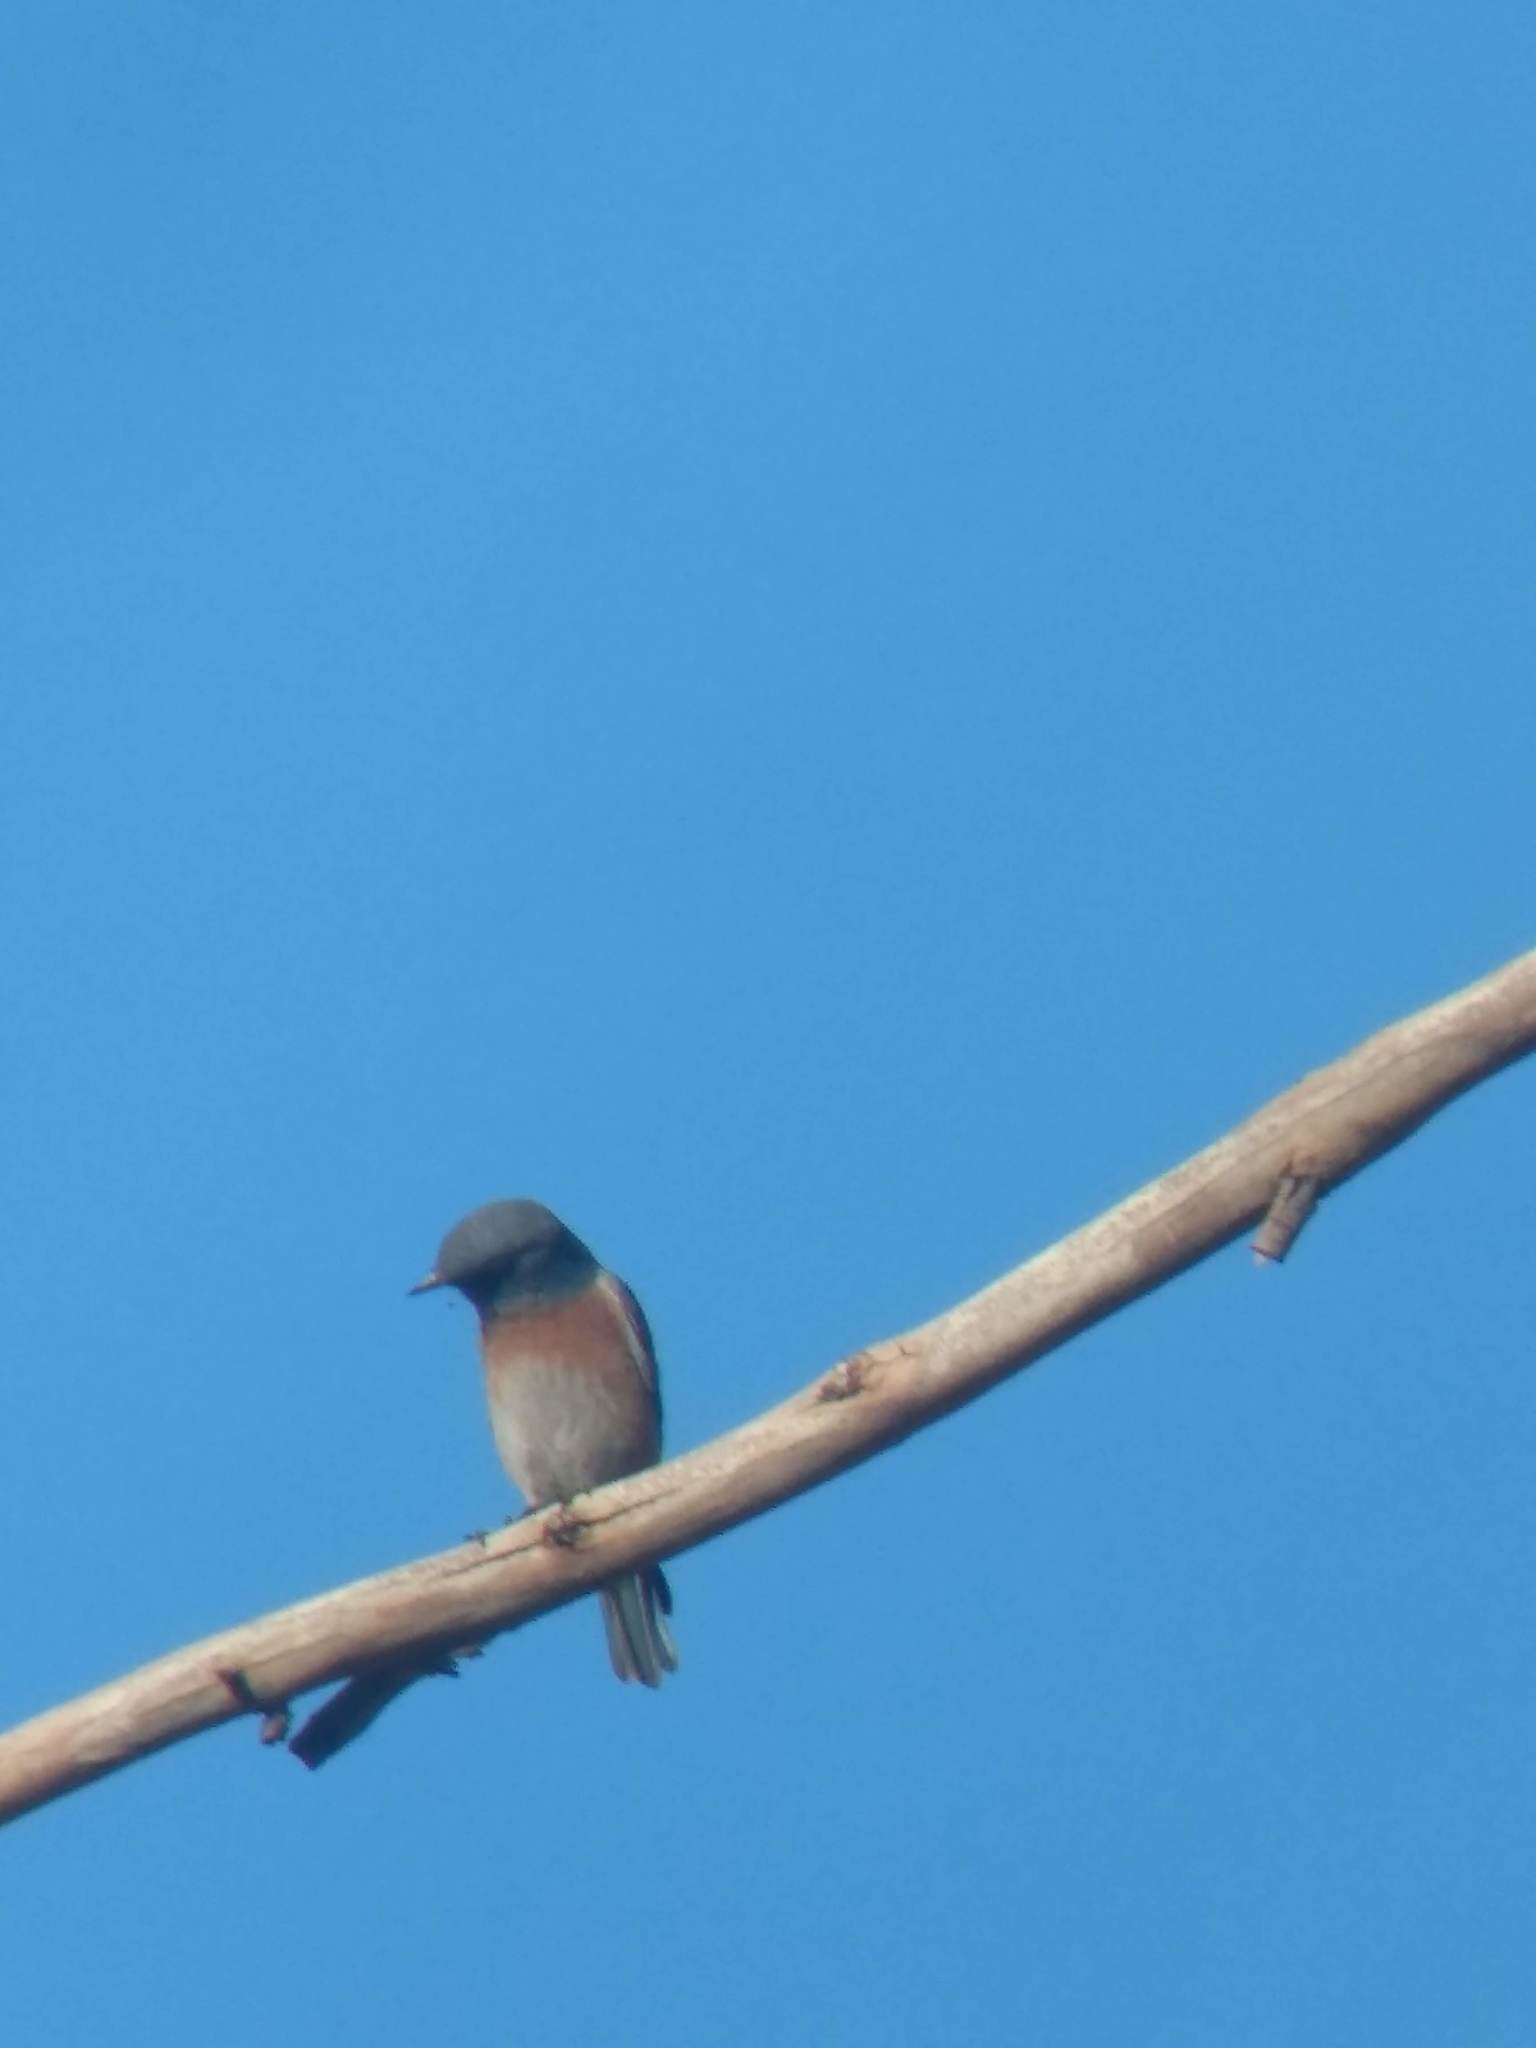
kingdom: Animalia
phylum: Chordata
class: Aves
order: Passeriformes
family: Turdidae
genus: Sialia
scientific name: Sialia mexicana
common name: Western bluebird
